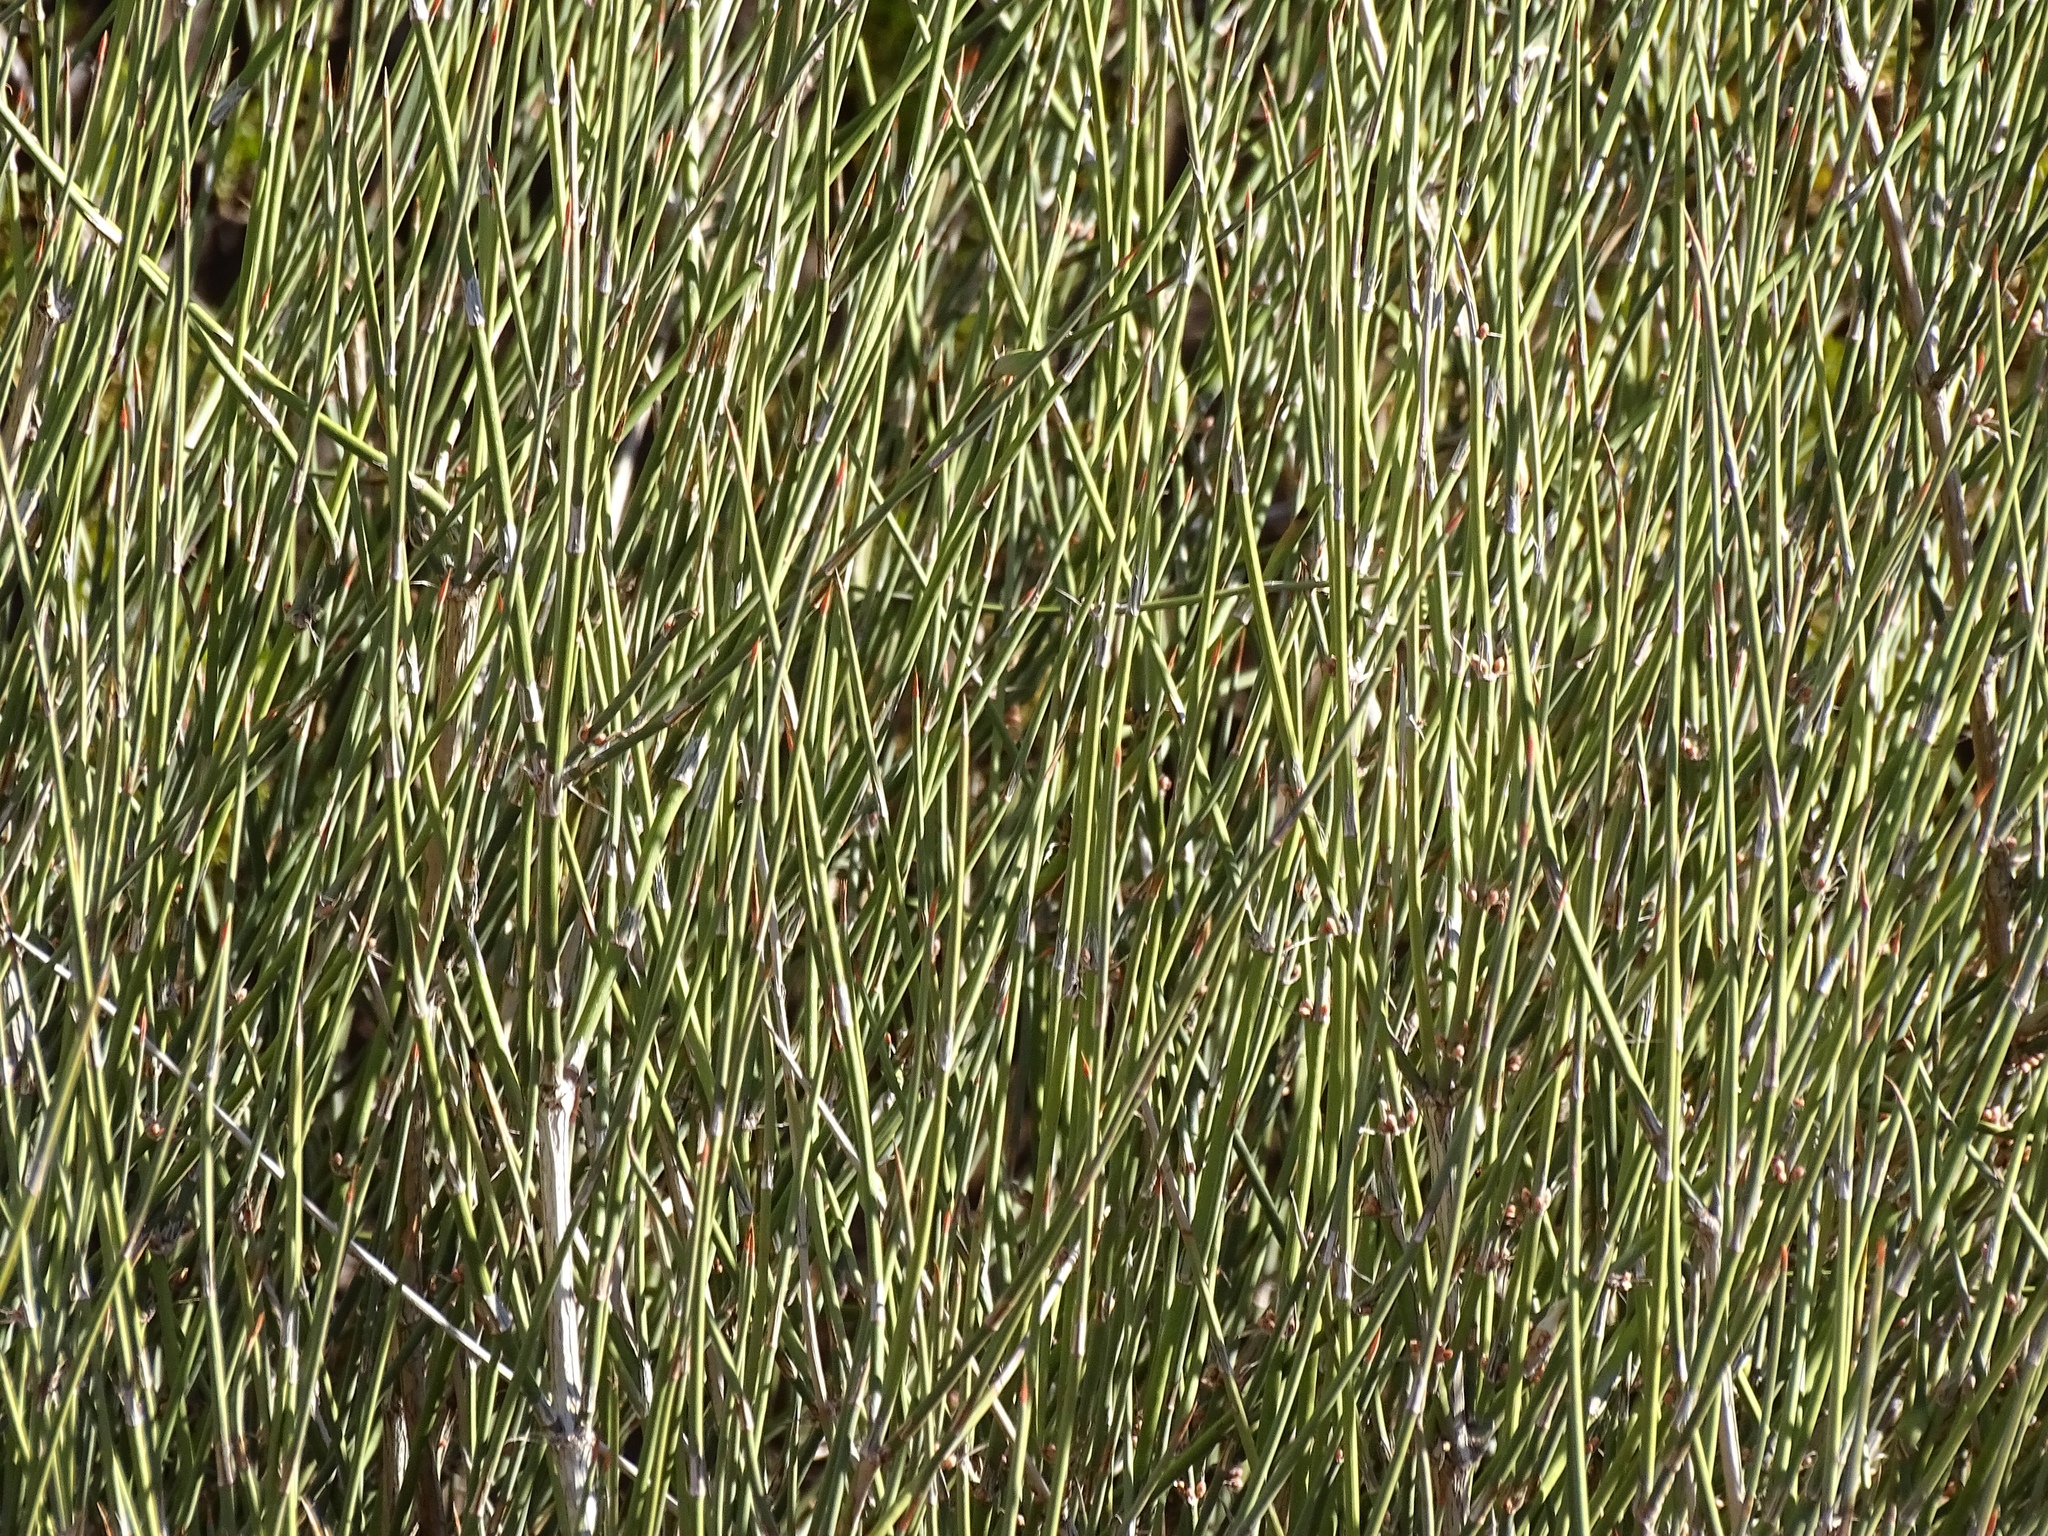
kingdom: Plantae
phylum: Tracheophyta
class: Gnetopsida
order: Ephedrales
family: Ephedraceae
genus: Ephedra
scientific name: Ephedra trifurca
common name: Mexican-tea
